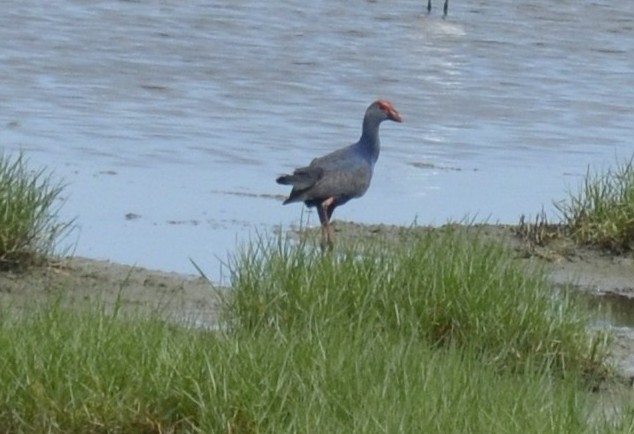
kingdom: Animalia
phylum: Chordata
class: Aves
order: Gruiformes
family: Rallidae
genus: Porphyrio
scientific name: Porphyrio porphyrio
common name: Purple swamphen
